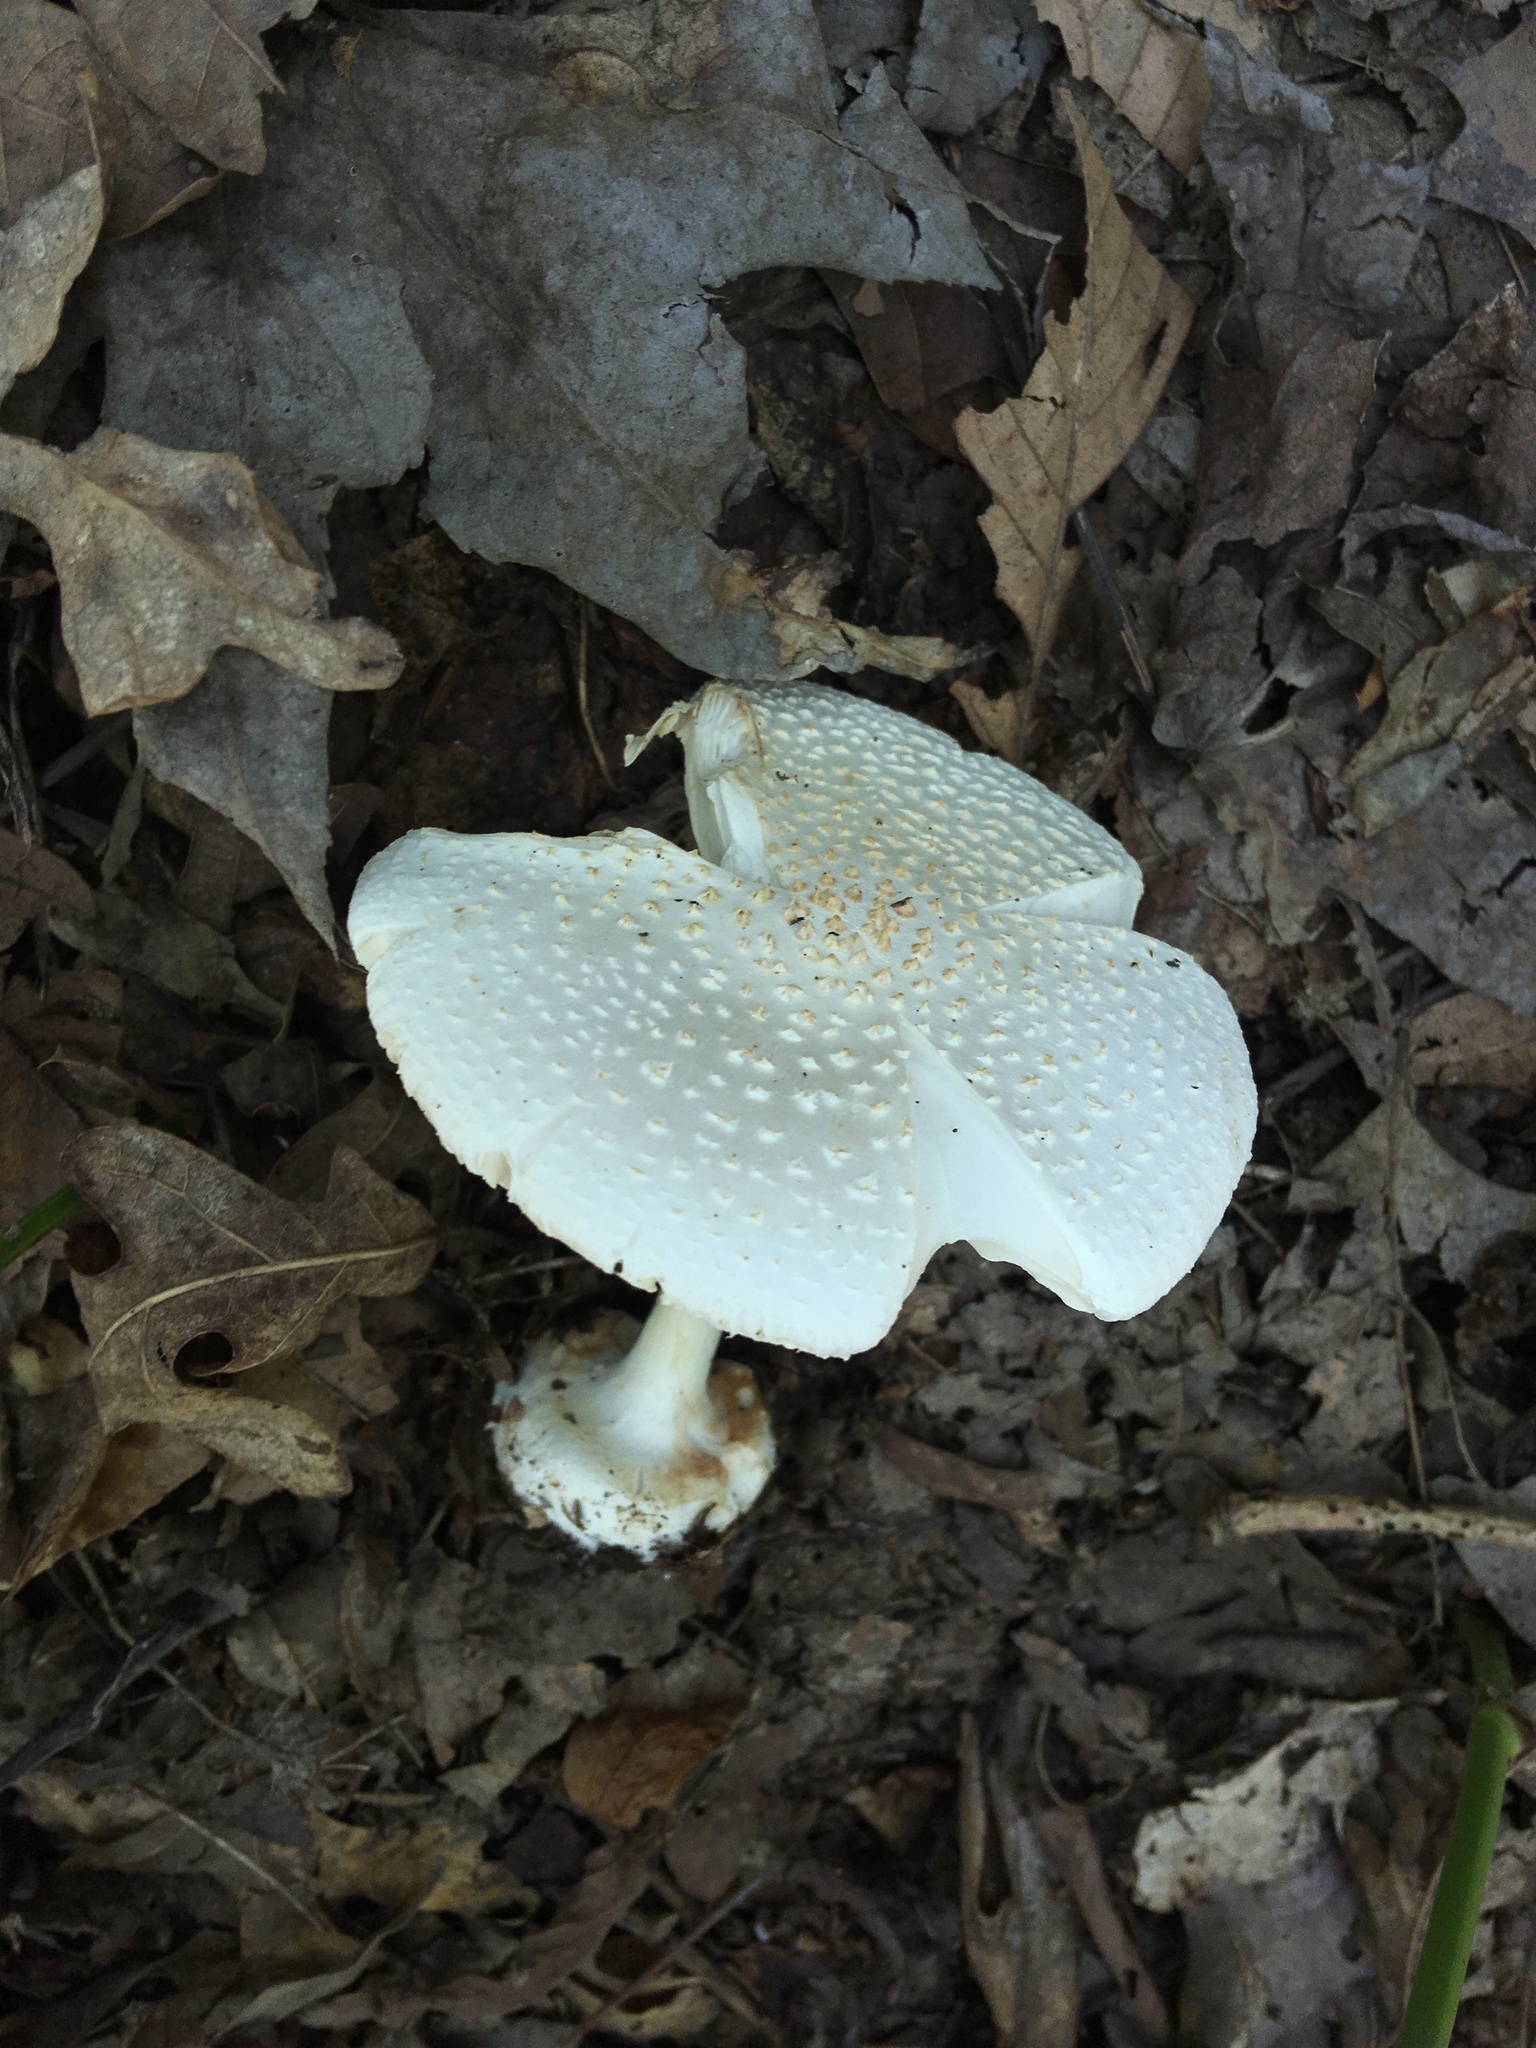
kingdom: Fungi
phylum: Basidiomycota
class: Agaricomycetes
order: Agaricales
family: Amanitaceae
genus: Amanita
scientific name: Amanita abrupta
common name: American abrupt-bulbed lepidella
